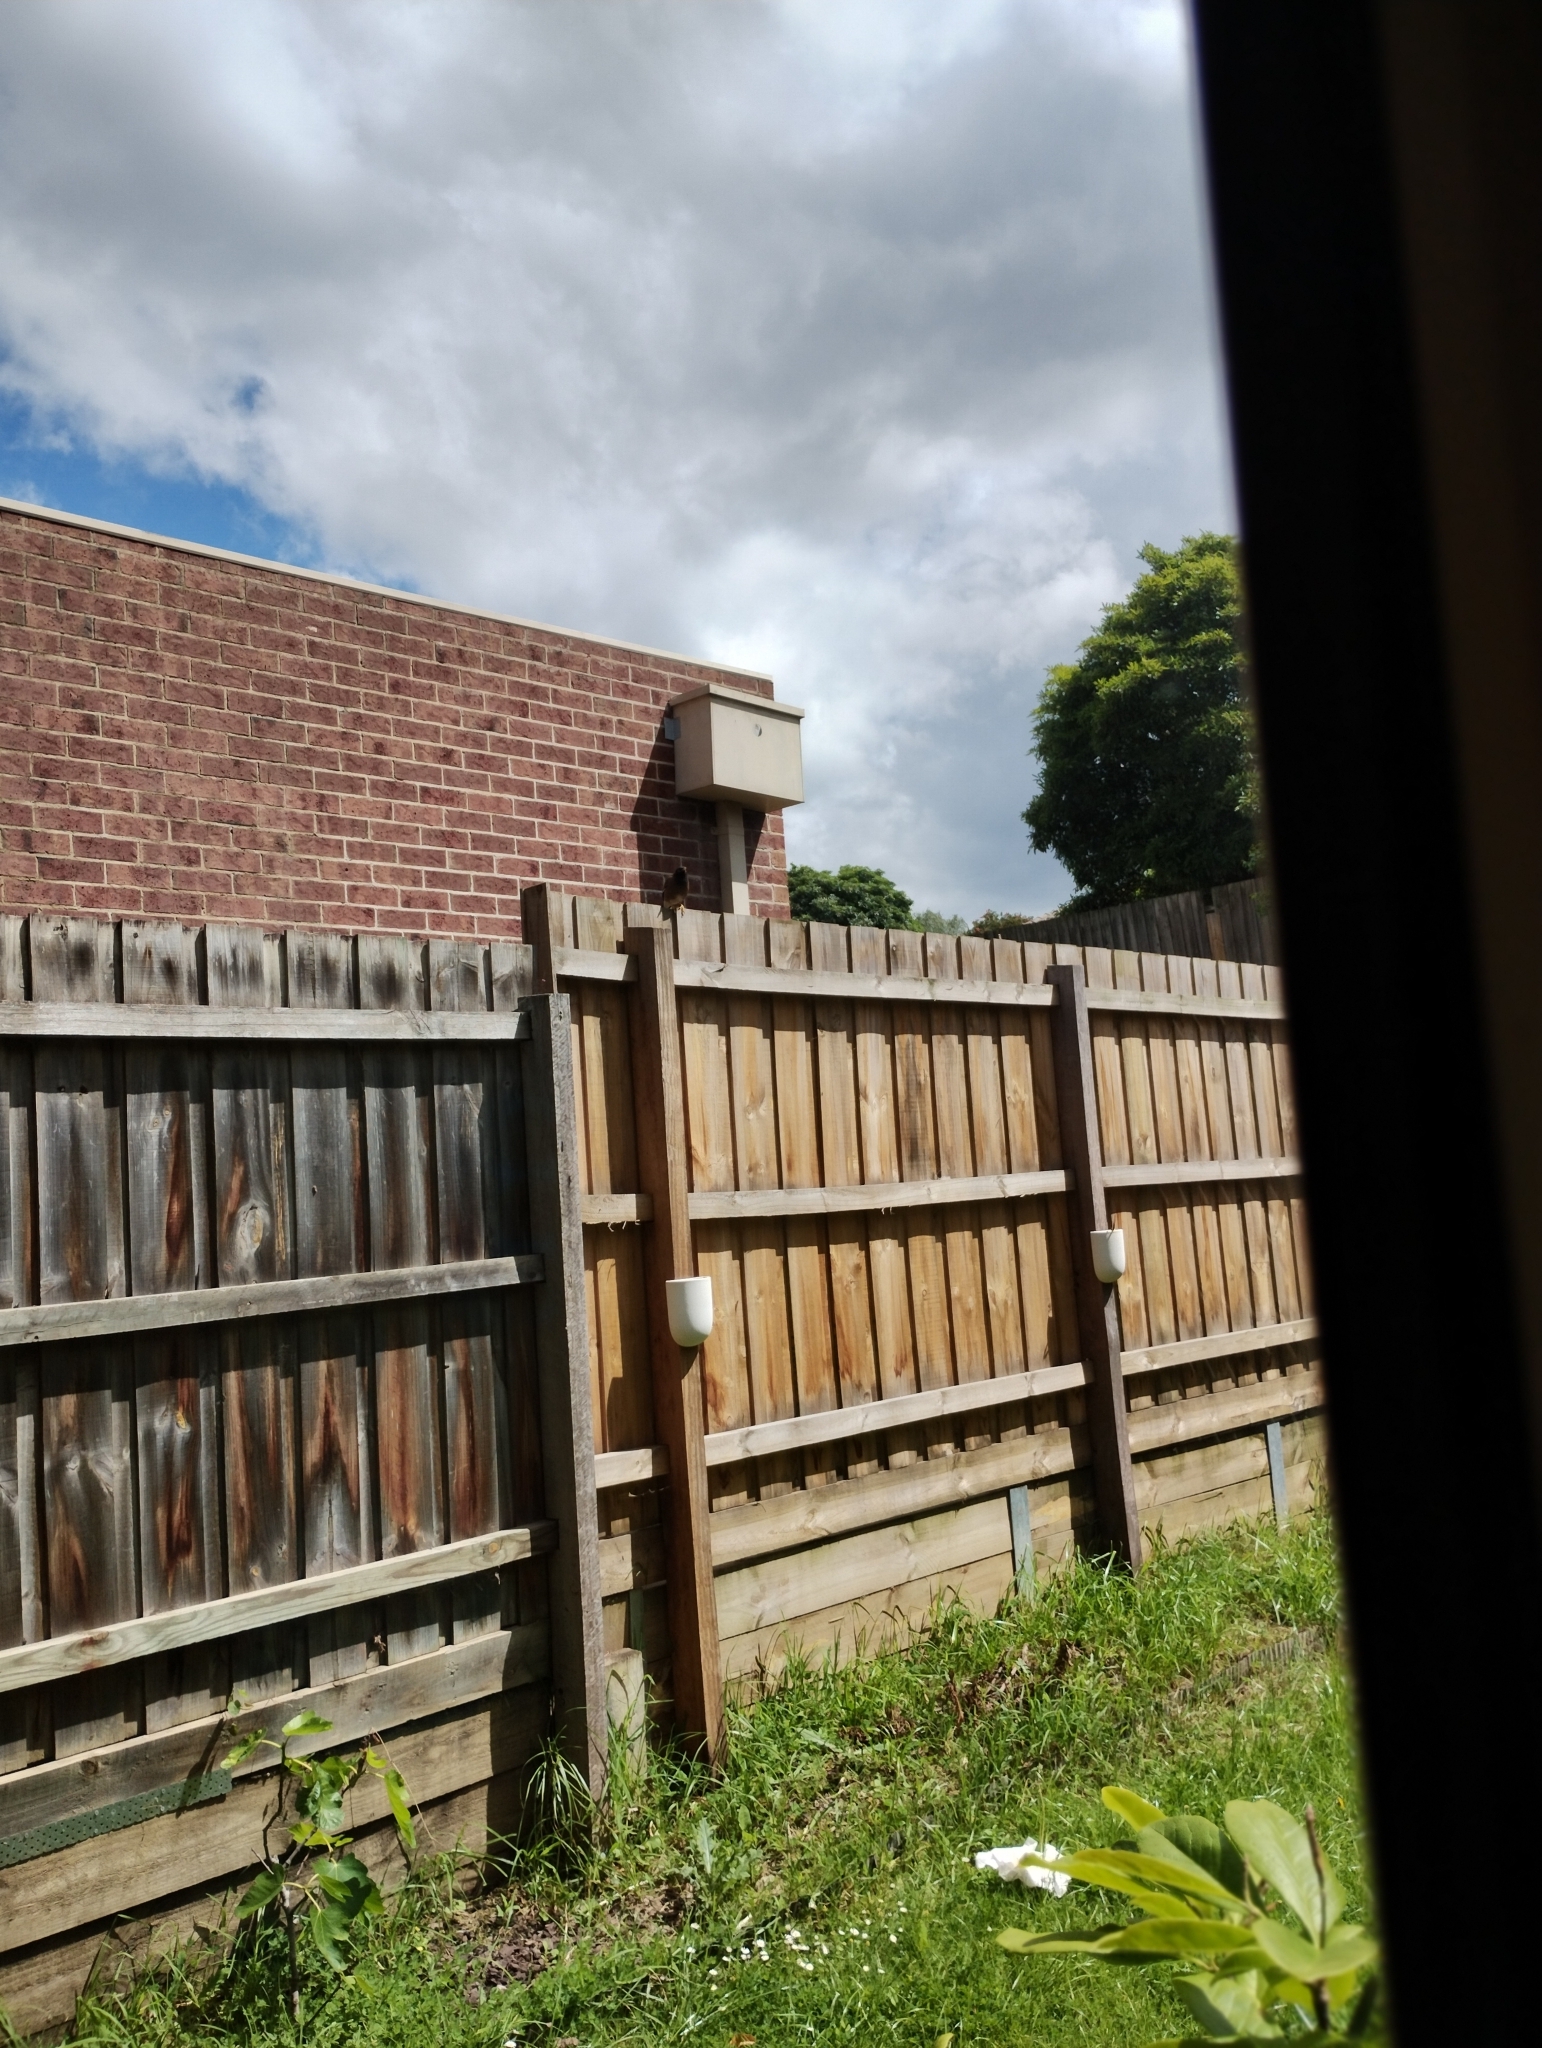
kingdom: Animalia
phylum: Chordata
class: Aves
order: Passeriformes
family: Sturnidae
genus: Acridotheres
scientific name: Acridotheres tristis
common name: Common myna
